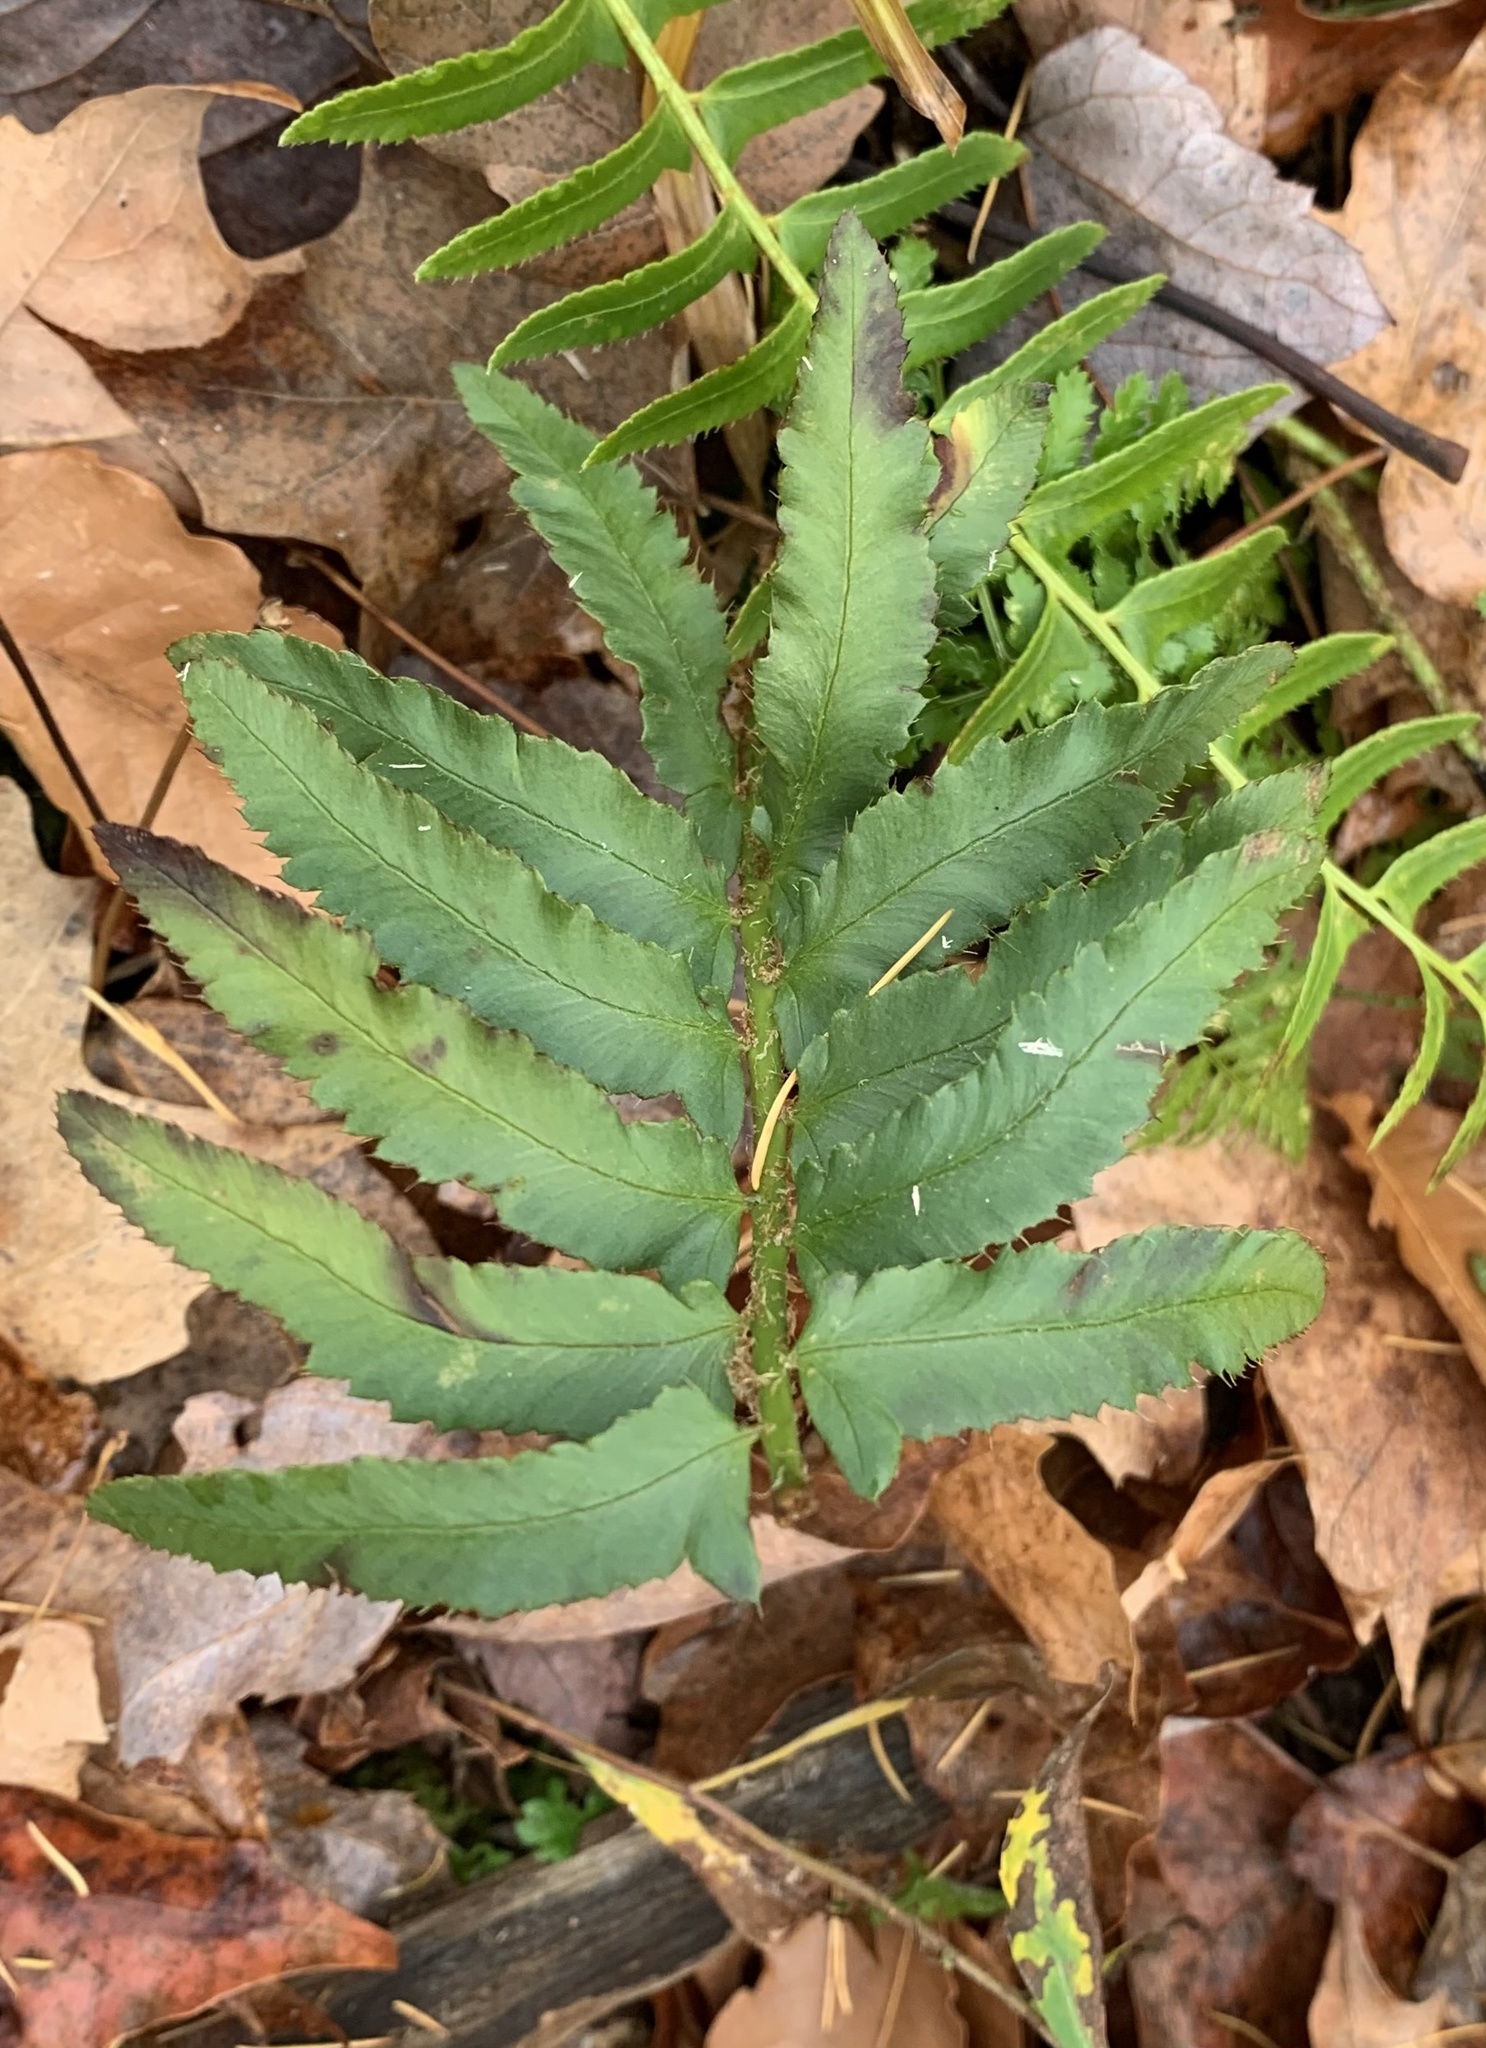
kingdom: Plantae
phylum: Tracheophyta
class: Polypodiopsida
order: Polypodiales
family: Dryopteridaceae
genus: Polystichum
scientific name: Polystichum acrostichoides
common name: Christmas fern
